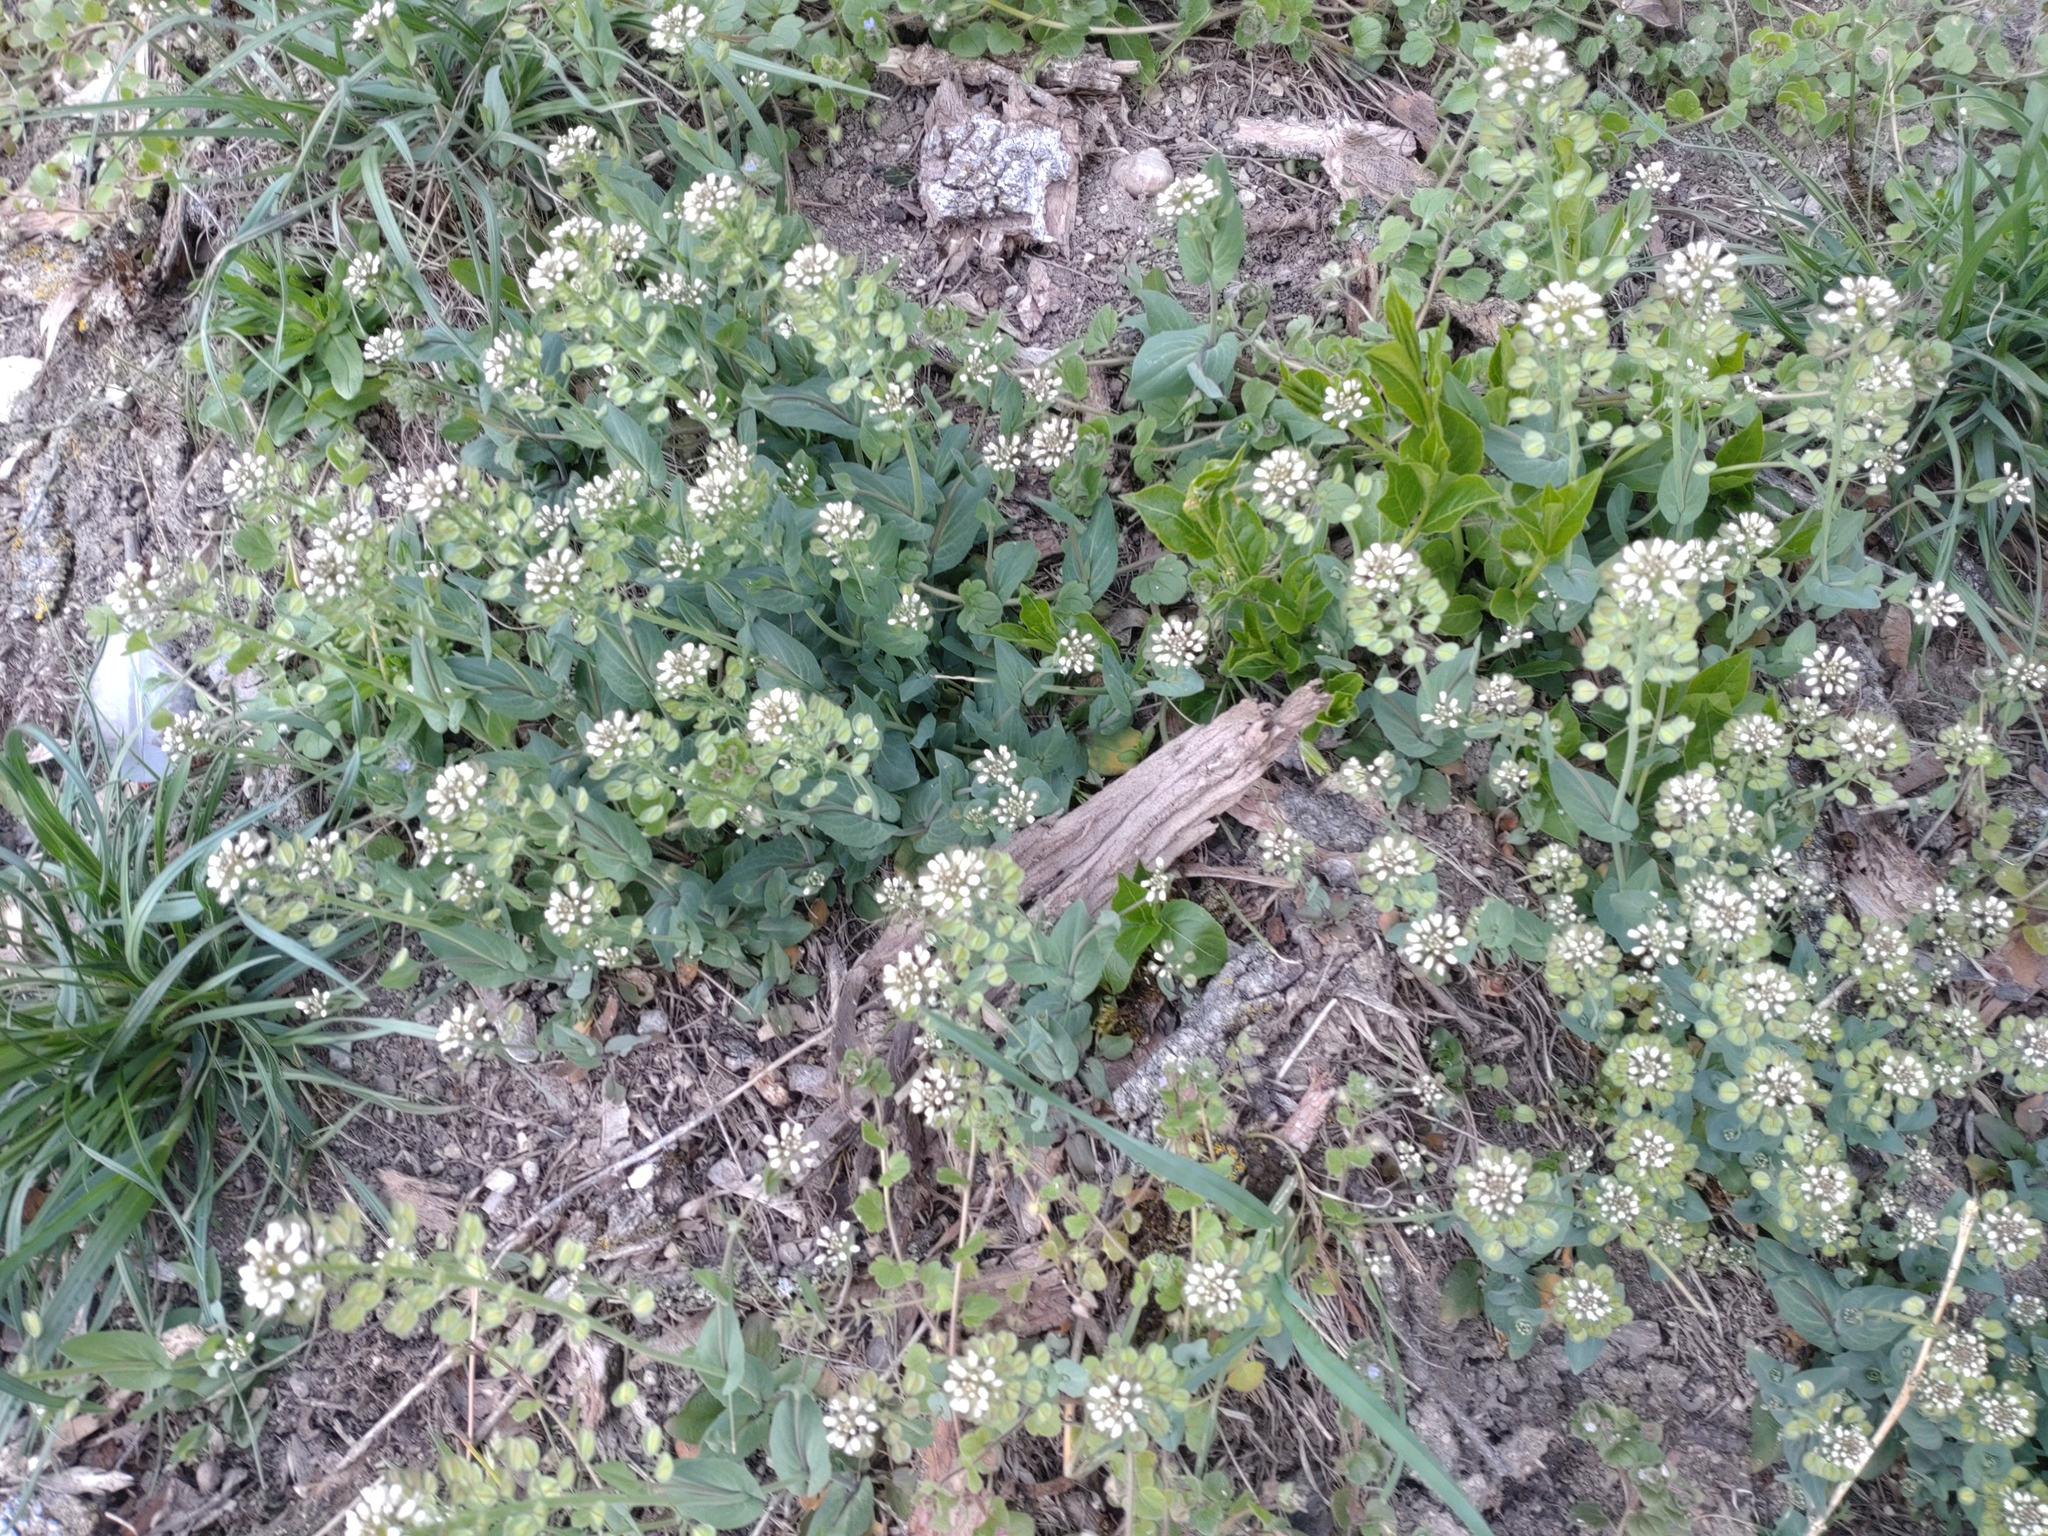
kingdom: Plantae
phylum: Tracheophyta
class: Magnoliopsida
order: Brassicales
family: Brassicaceae
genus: Noccaea
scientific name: Noccaea perfoliata
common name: Perfoliate pennycress
